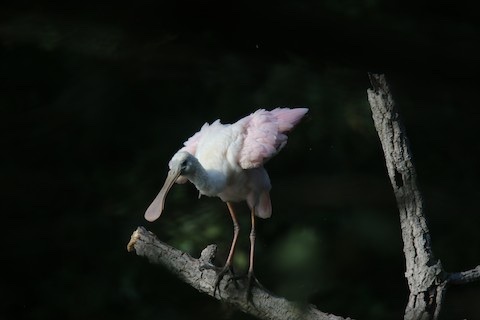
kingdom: Animalia
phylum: Chordata
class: Aves
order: Pelecaniformes
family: Threskiornithidae
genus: Platalea
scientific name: Platalea ajaja
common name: Roseate spoonbill
